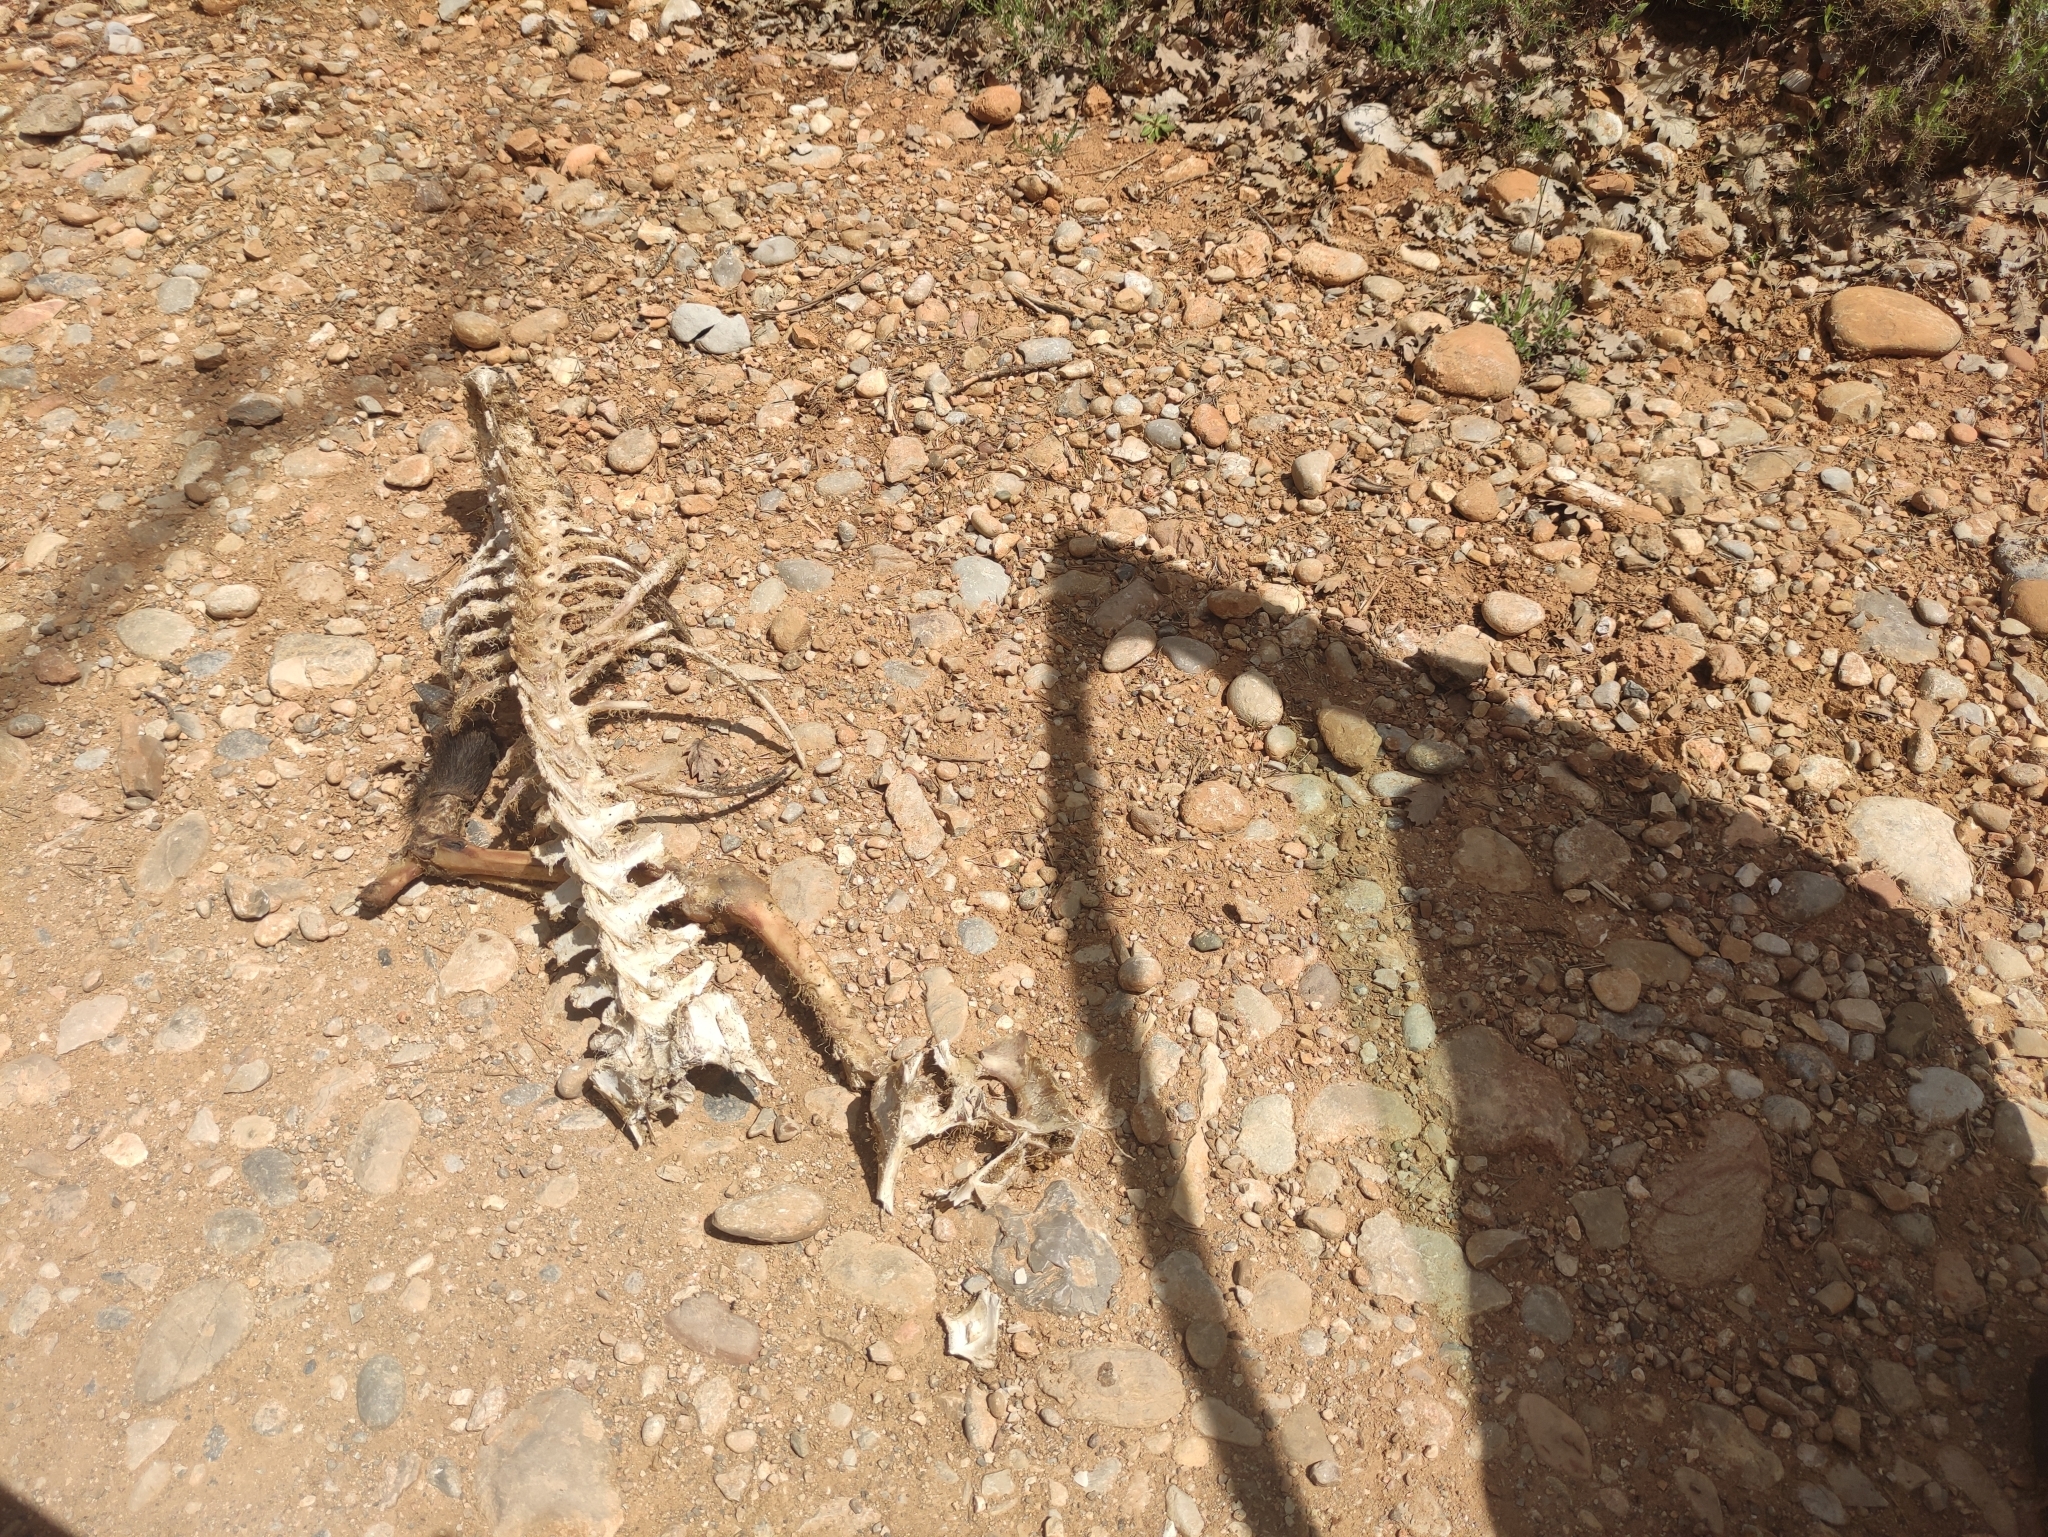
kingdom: Animalia
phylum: Chordata
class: Mammalia
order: Artiodactyla
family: Suidae
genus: Sus
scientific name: Sus scrofa
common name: Wild boar
